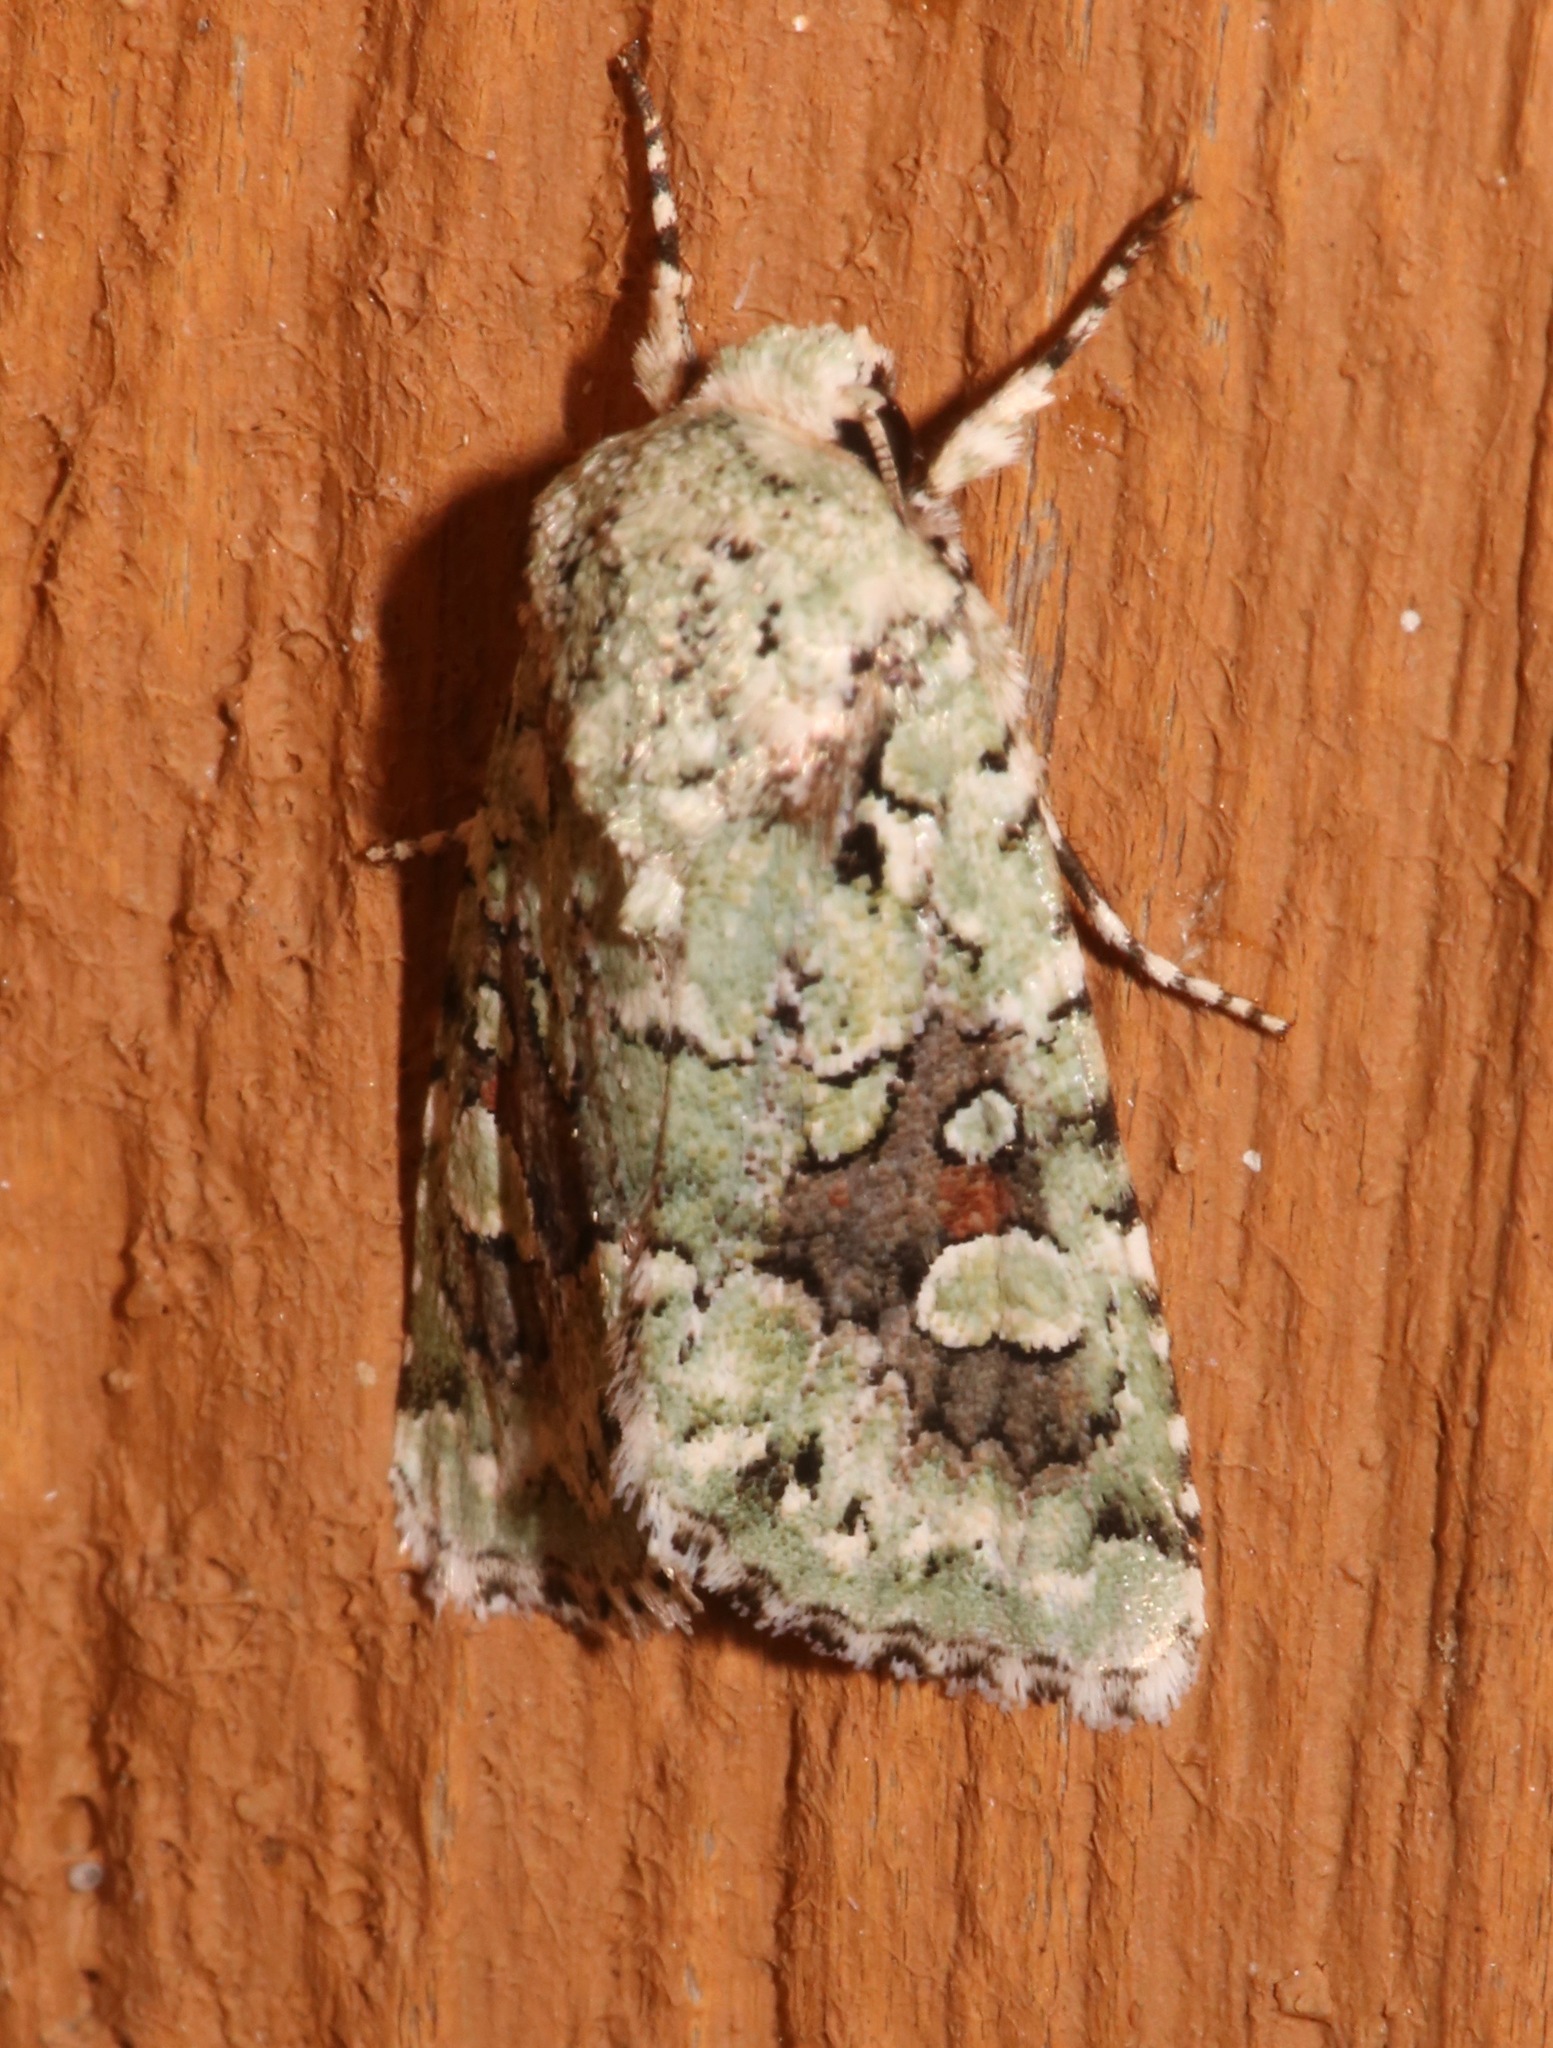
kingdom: Animalia
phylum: Arthropoda
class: Insecta
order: Lepidoptera
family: Noctuidae
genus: Lacinipolia
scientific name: Lacinipolia laudabilis
